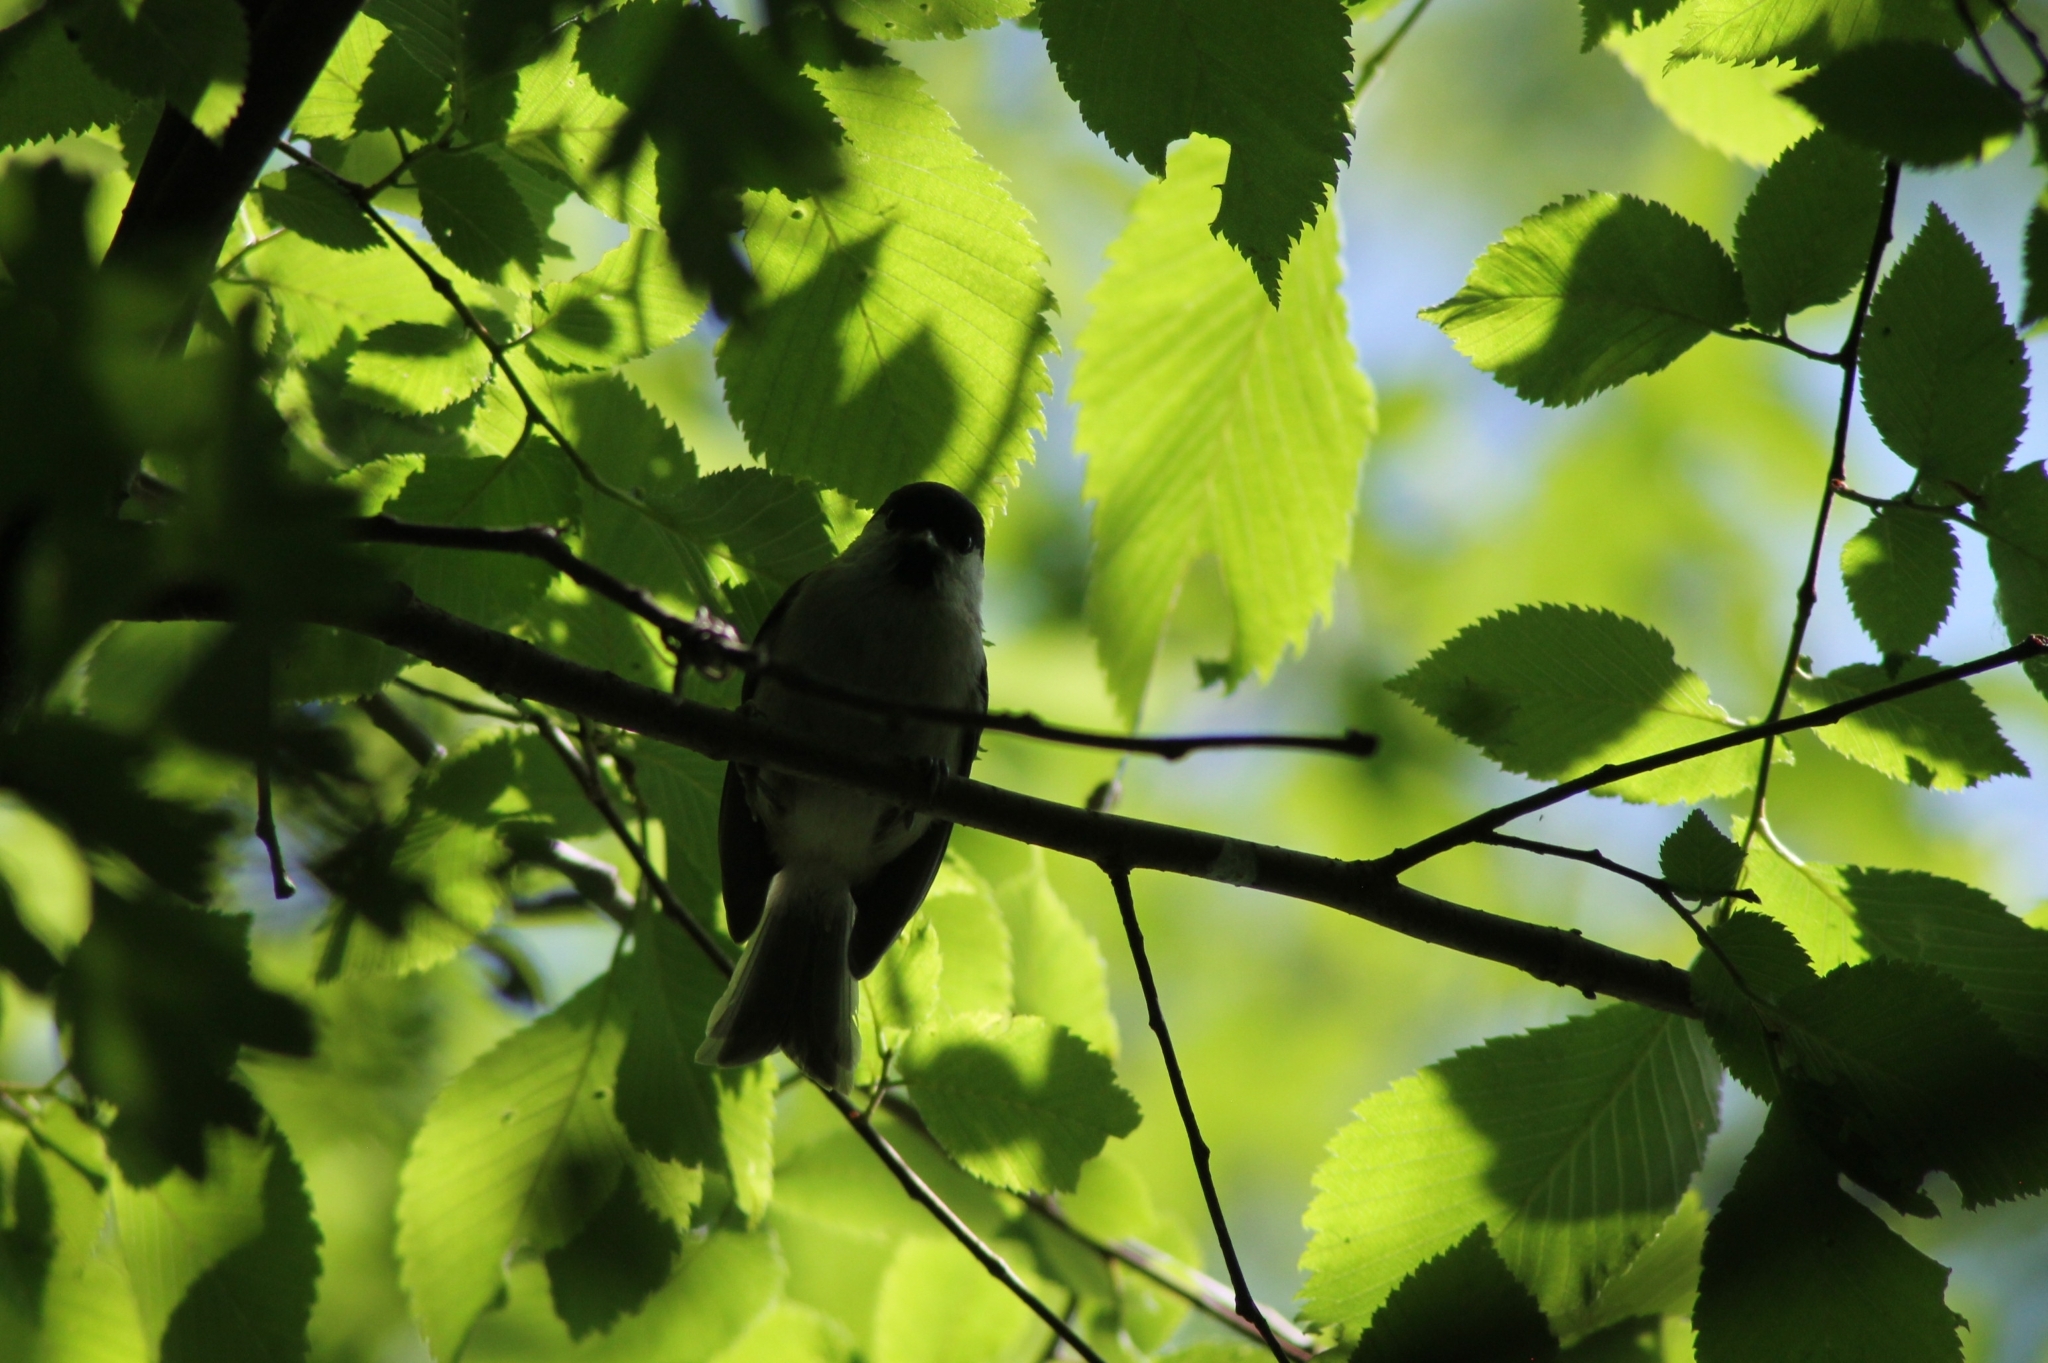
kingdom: Animalia
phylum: Chordata
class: Aves
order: Passeriformes
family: Paridae
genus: Poecile
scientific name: Poecile palustris
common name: Marsh tit
